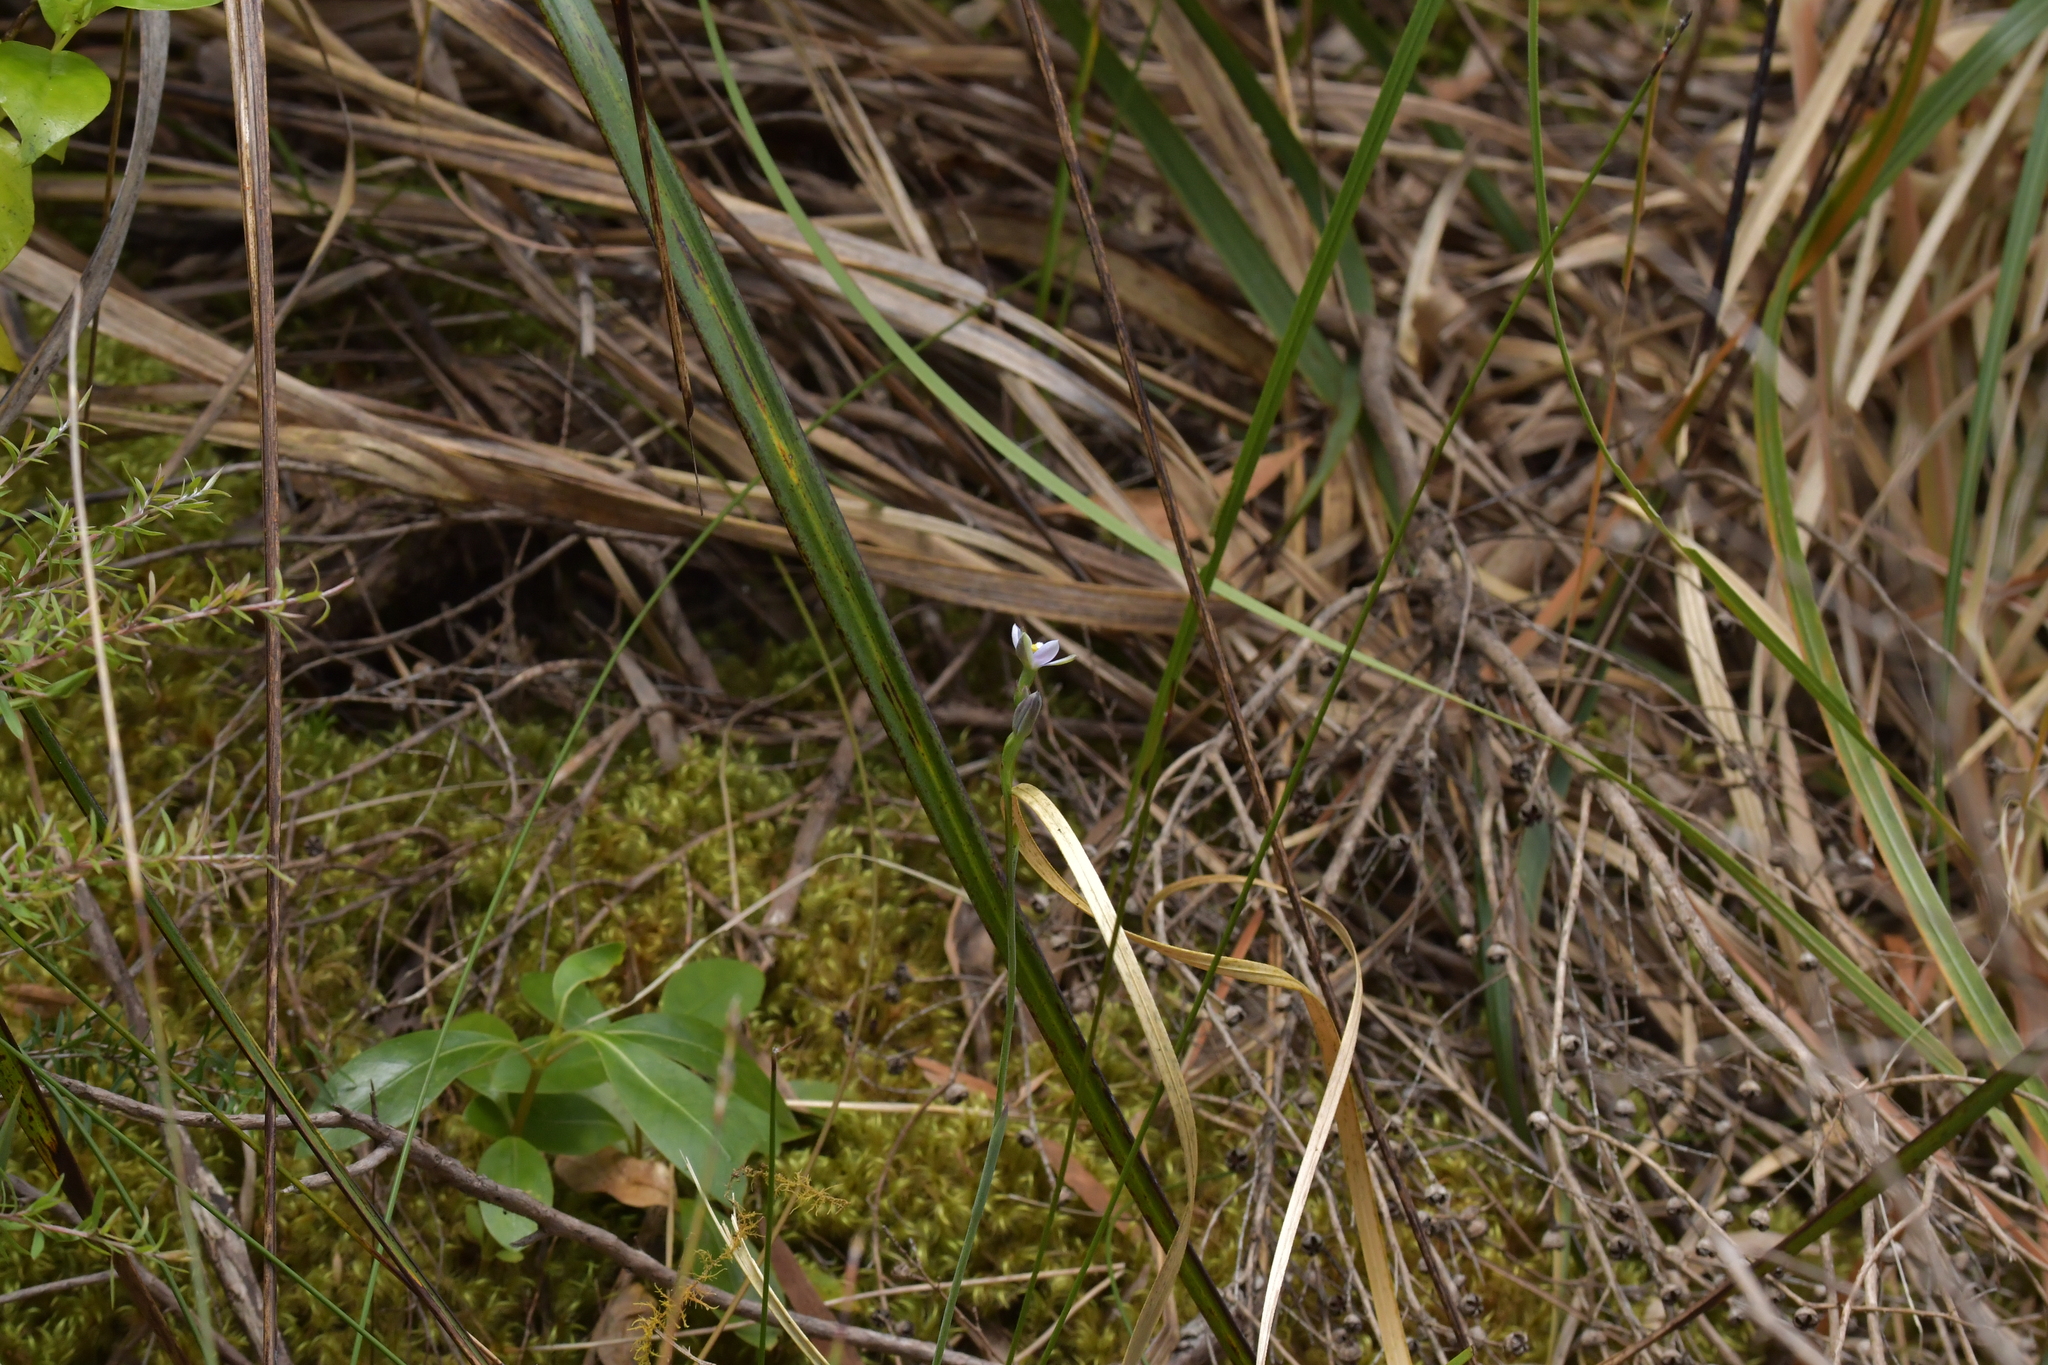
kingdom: Plantae
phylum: Tracheophyta
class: Liliopsida
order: Asparagales
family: Orchidaceae
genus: Thelymitra
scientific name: Thelymitra tholiformis
